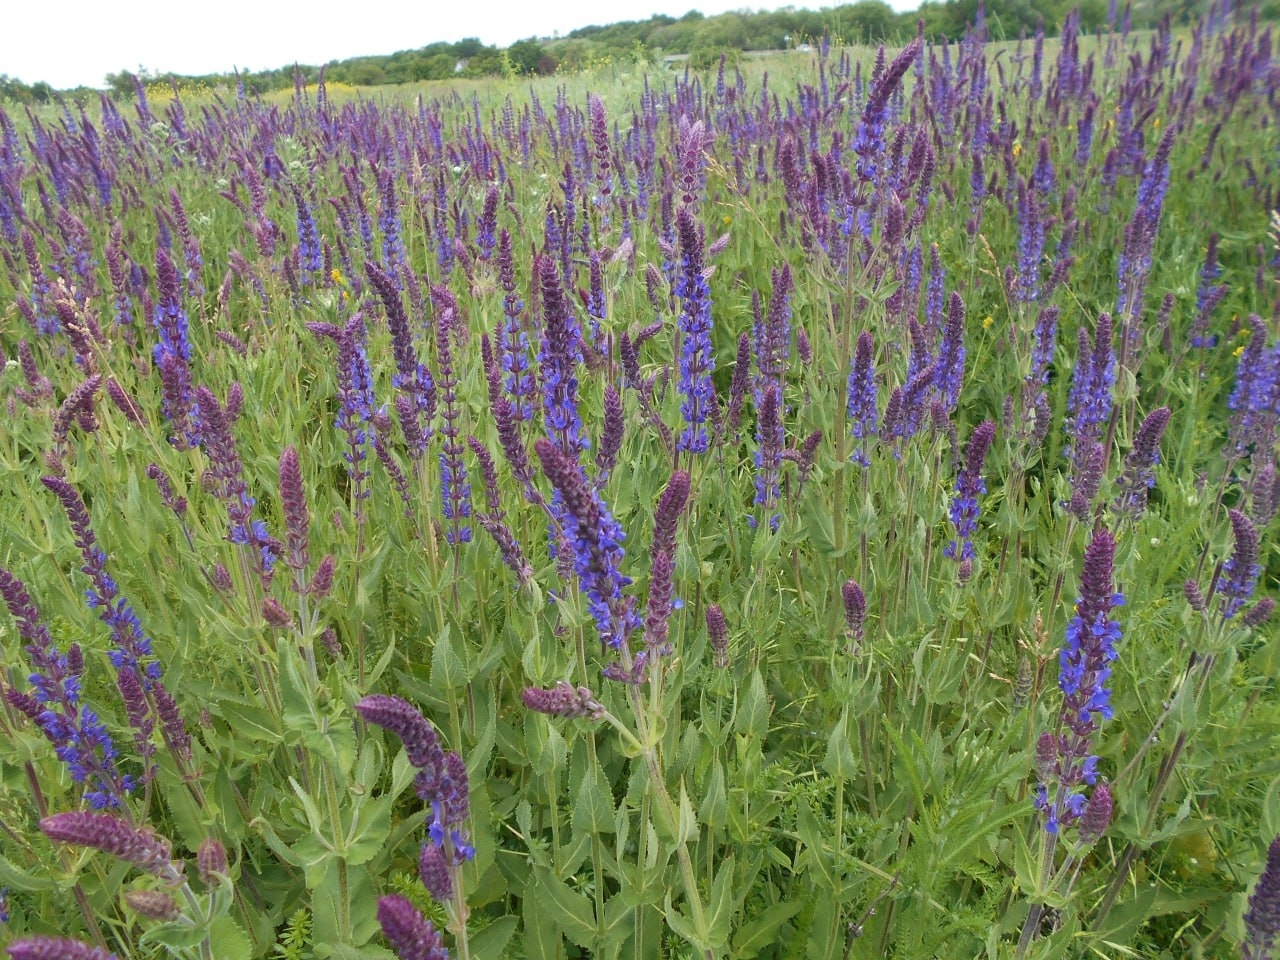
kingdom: Plantae
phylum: Tracheophyta
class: Magnoliopsida
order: Lamiales
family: Lamiaceae
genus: Salvia
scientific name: Salvia nemorosa
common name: Balkan clary
